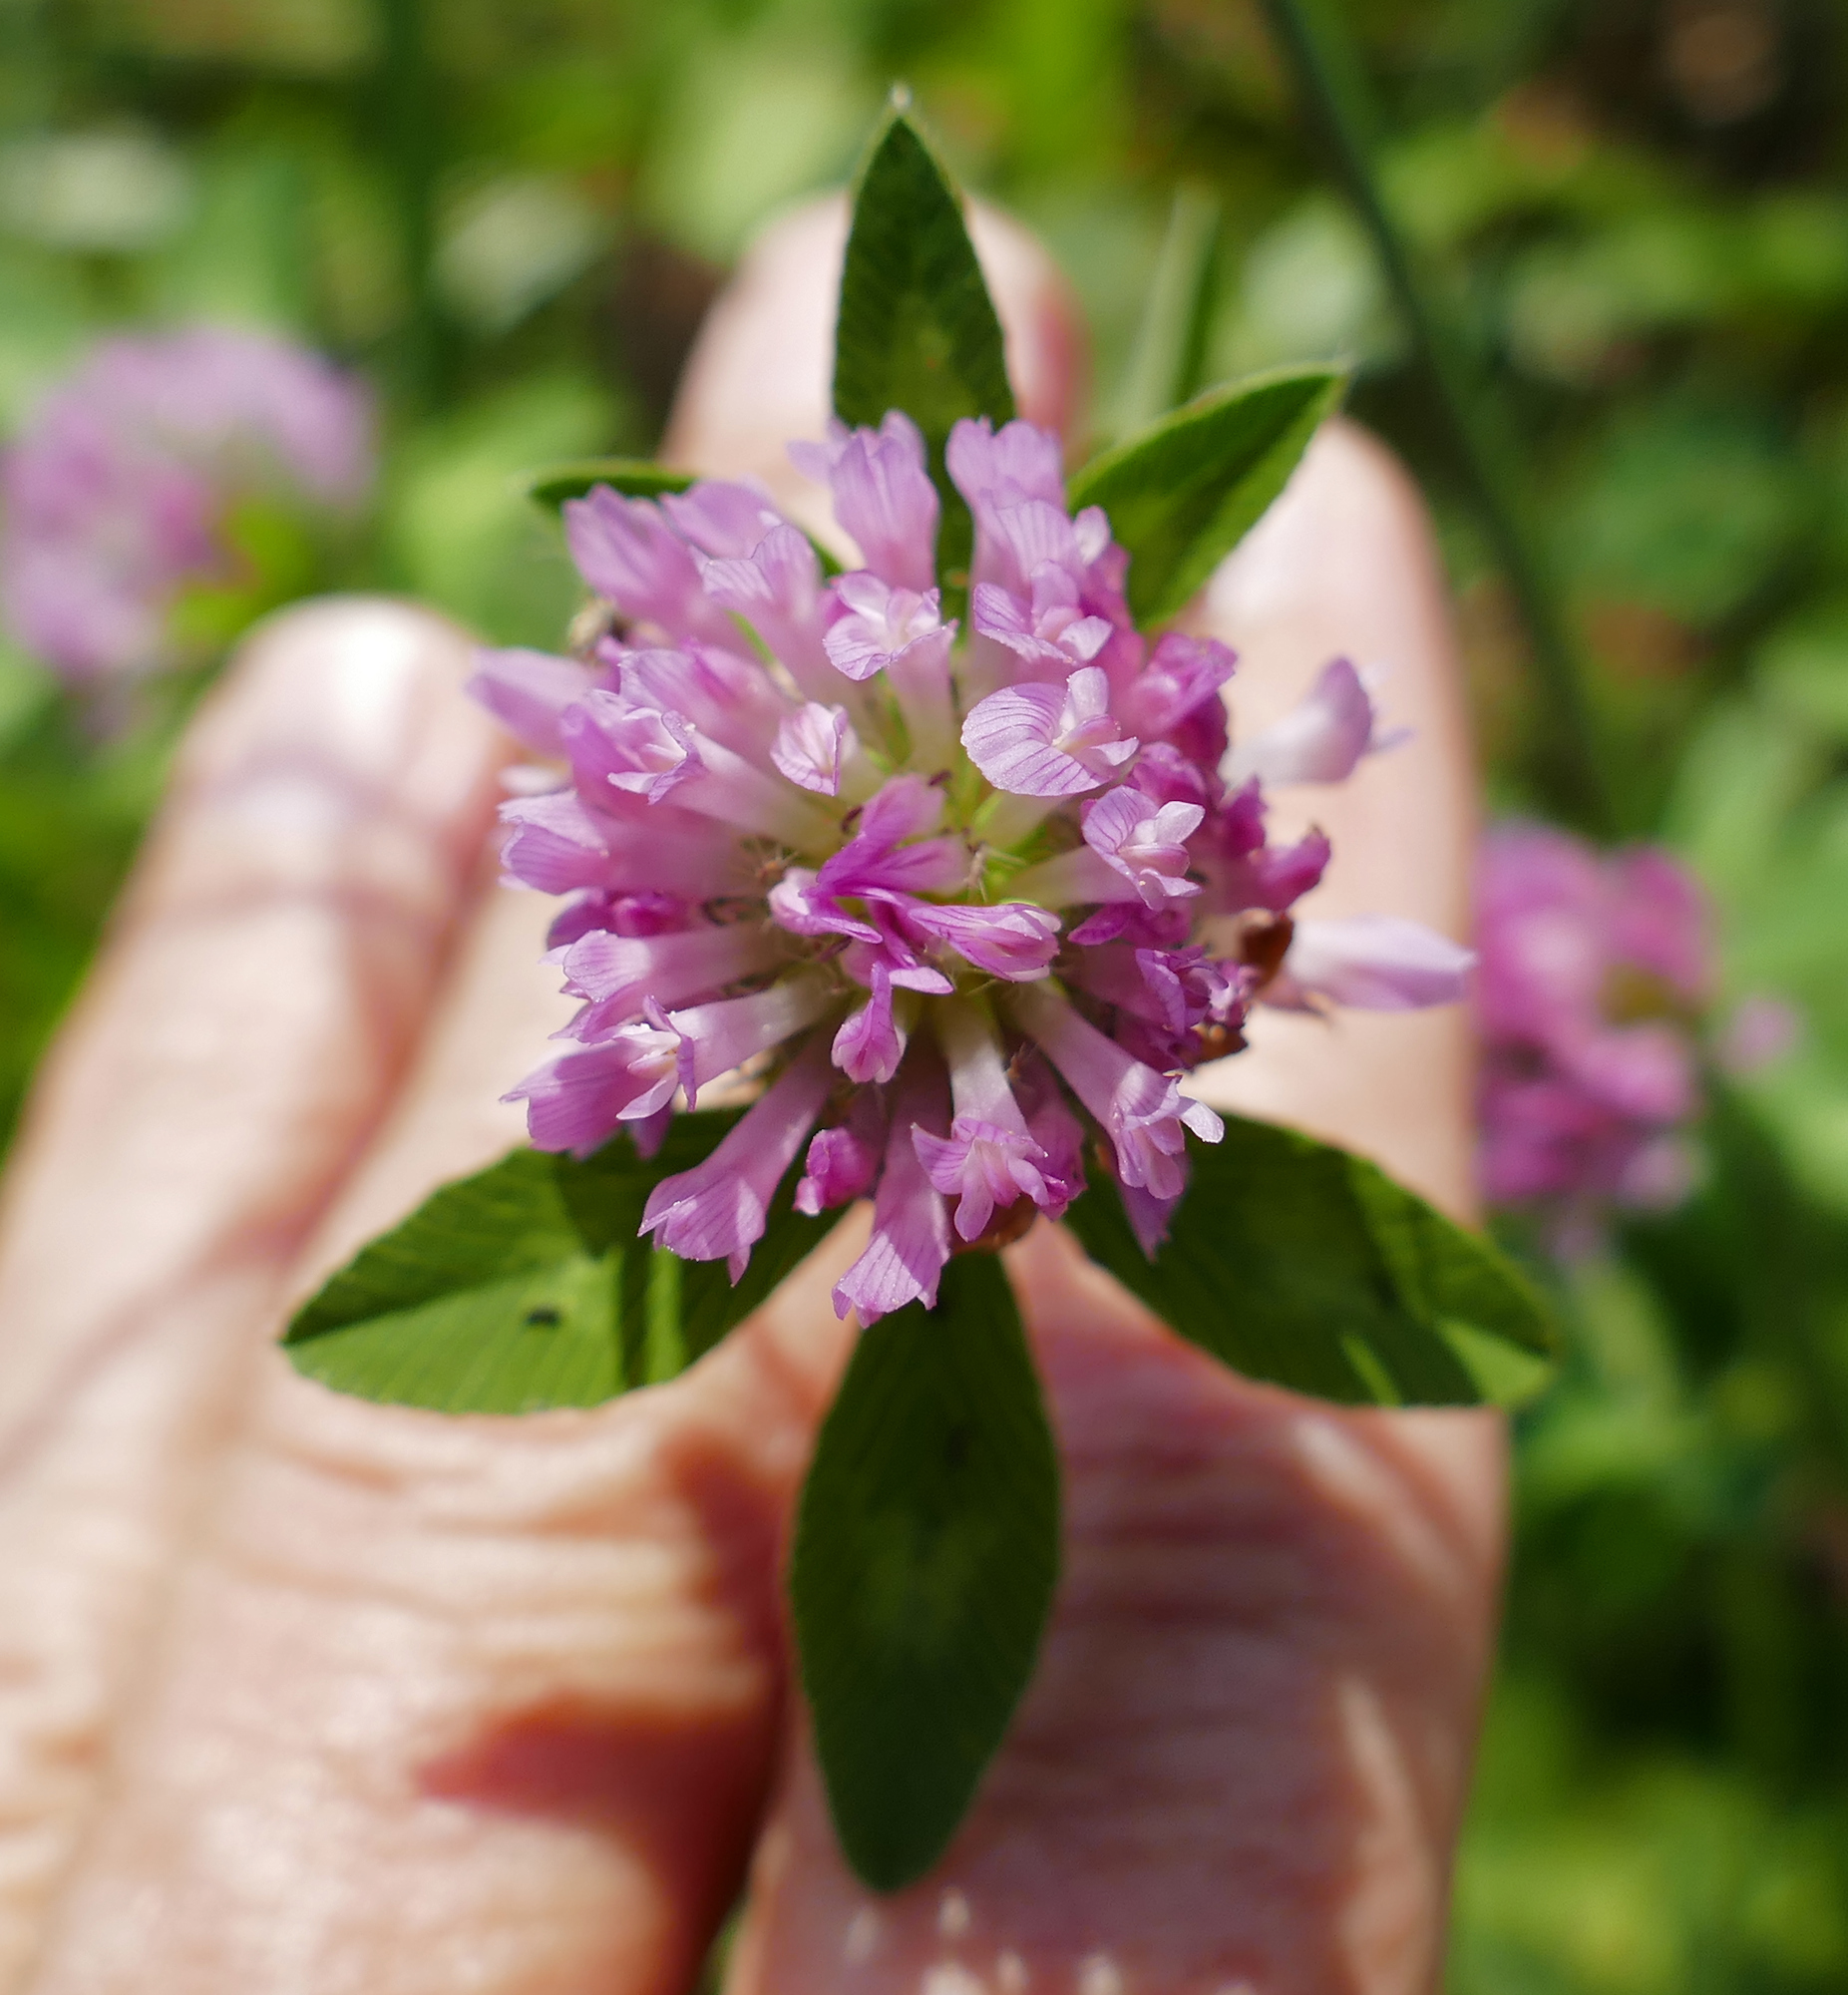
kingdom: Plantae
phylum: Tracheophyta
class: Magnoliopsida
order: Fabales
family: Fabaceae
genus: Trifolium
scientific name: Trifolium pratense
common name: Red clover
